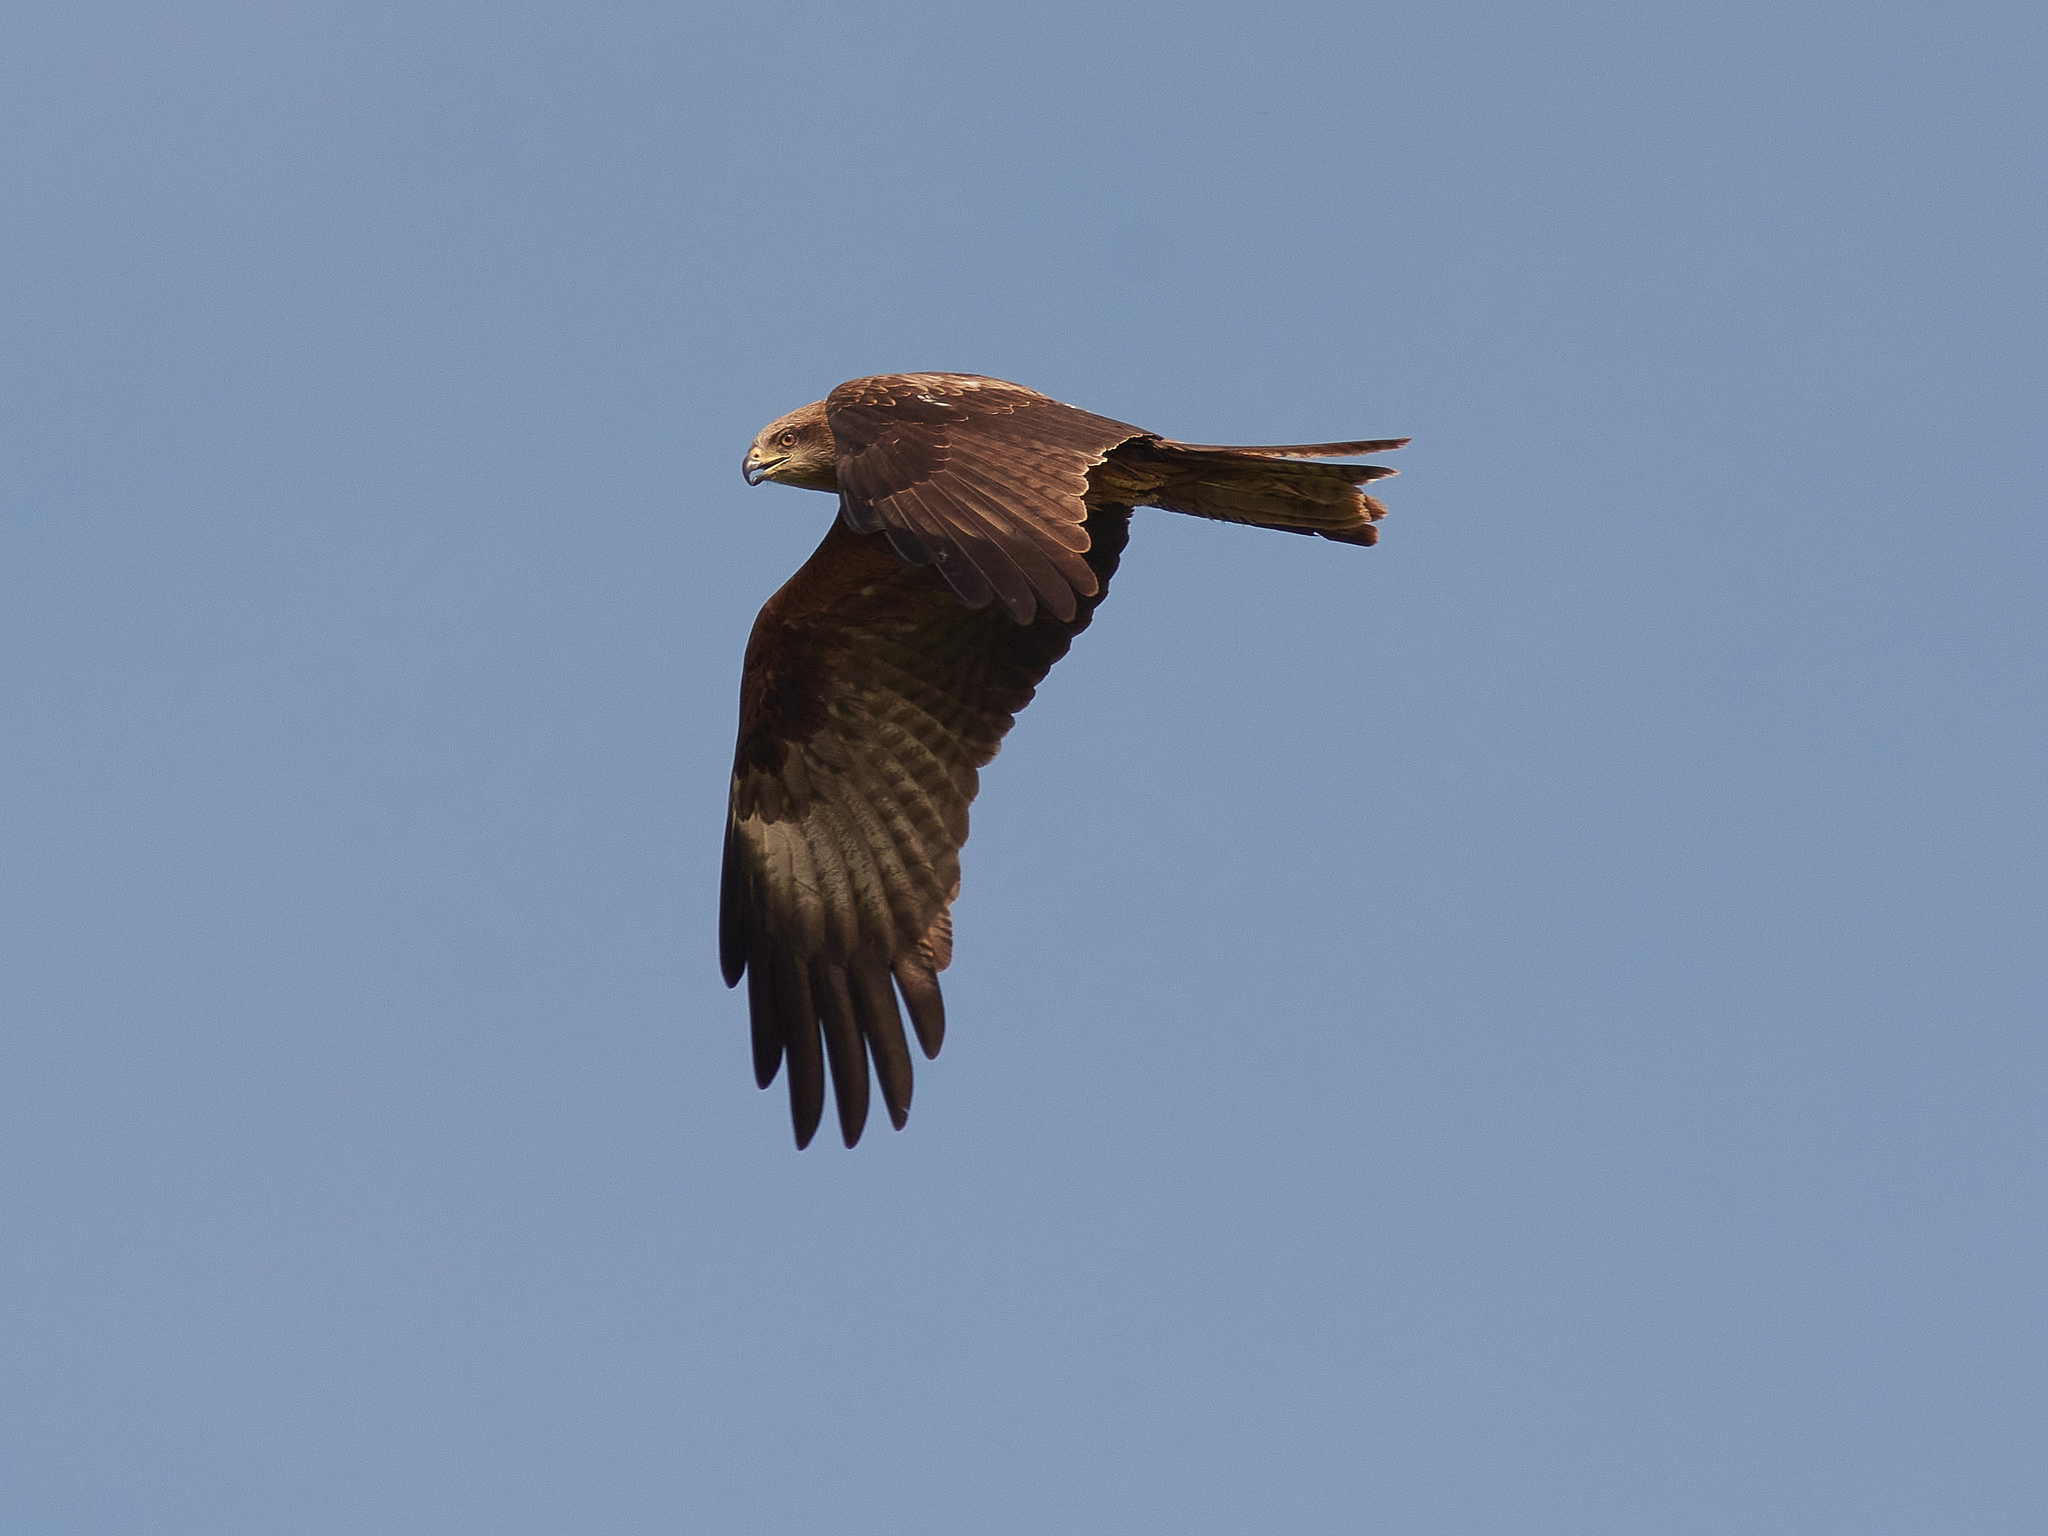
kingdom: Animalia
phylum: Chordata
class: Aves
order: Accipitriformes
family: Accipitridae
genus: Milvus
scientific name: Milvus migrans
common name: Black kite
